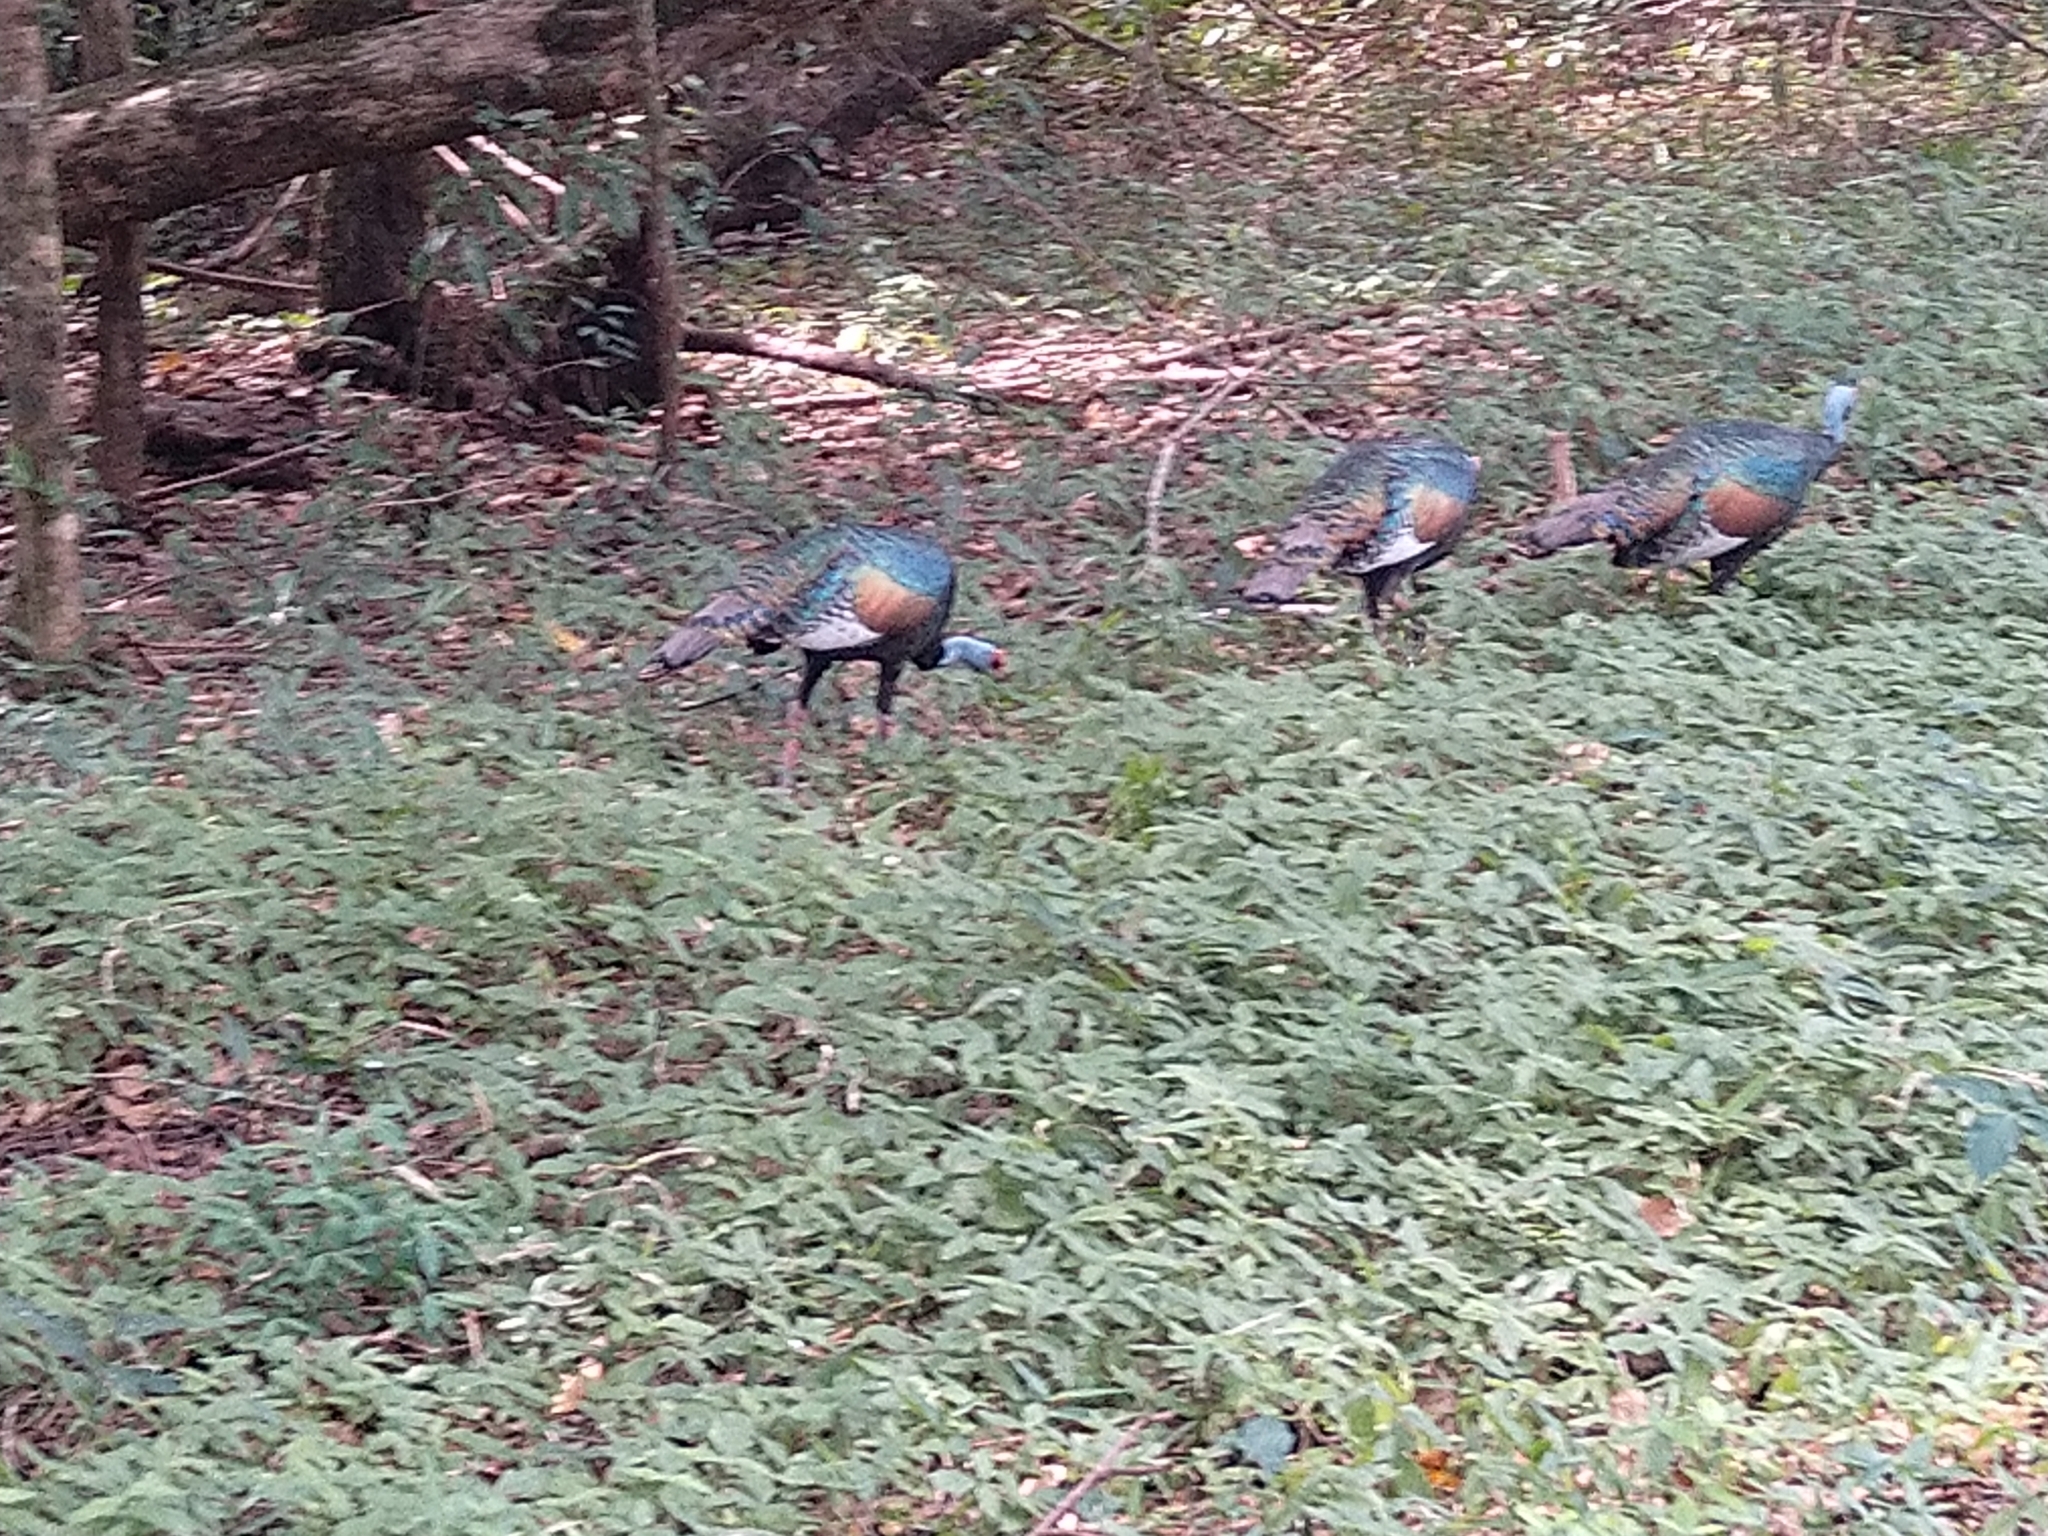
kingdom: Animalia
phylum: Chordata
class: Aves
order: Galliformes
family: Phasianidae
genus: Meleagris
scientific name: Meleagris ocellata
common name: Ocellated turkey
